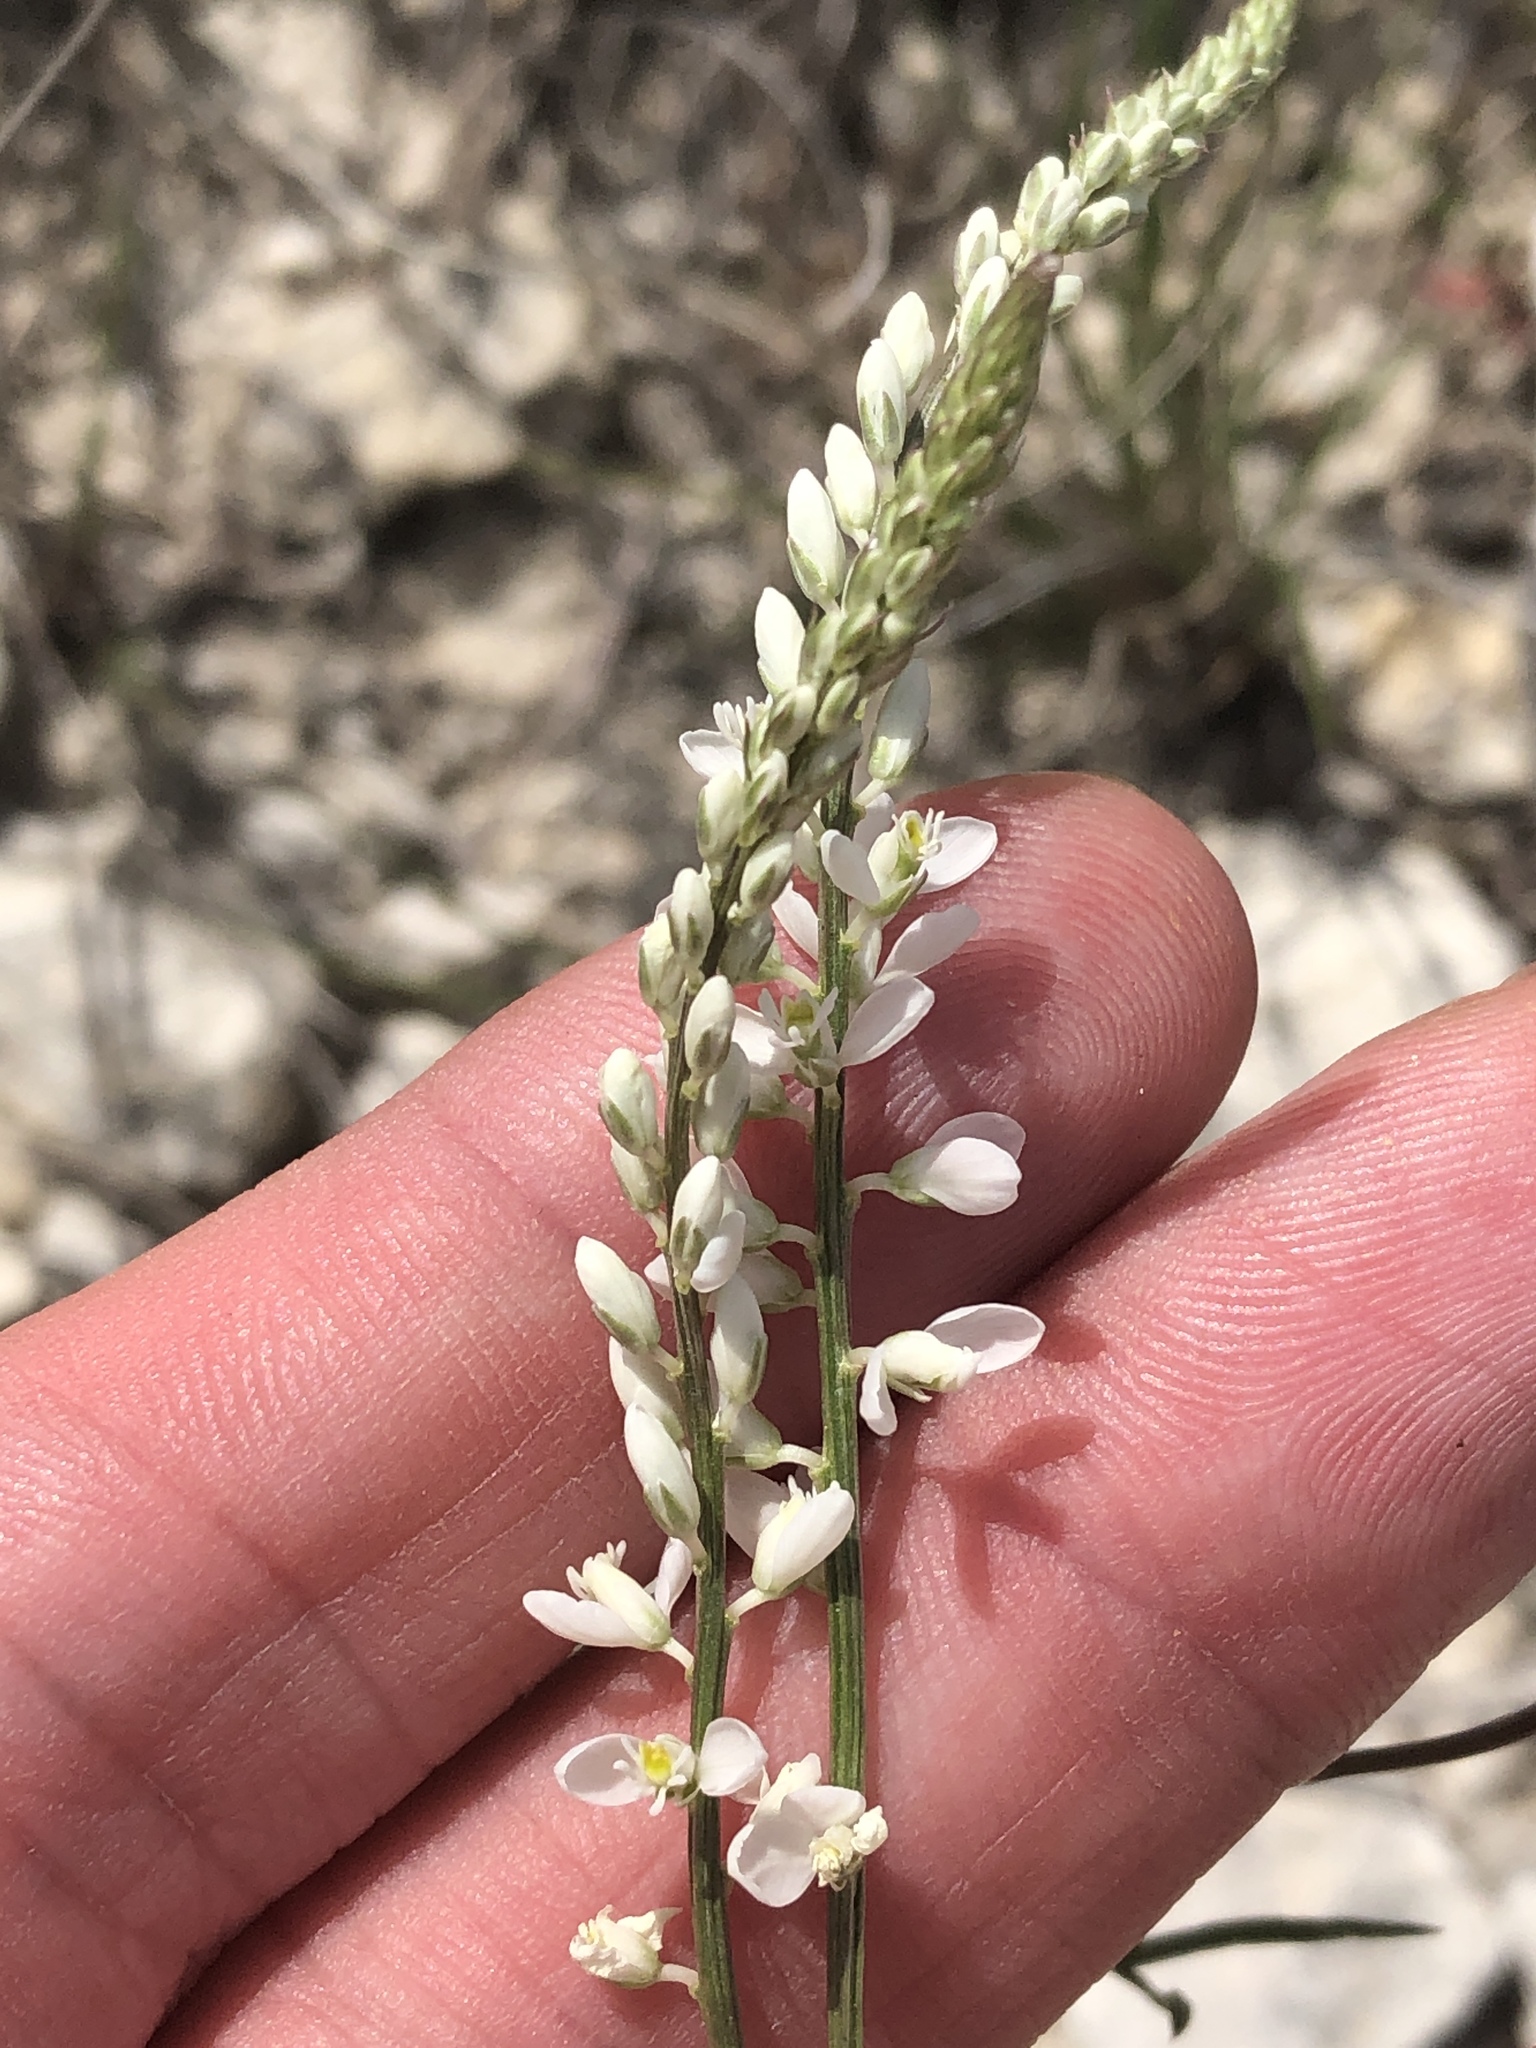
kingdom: Plantae
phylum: Tracheophyta
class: Magnoliopsida
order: Fabales
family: Polygalaceae
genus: Polygala
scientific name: Polygala alba
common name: White milkwort
